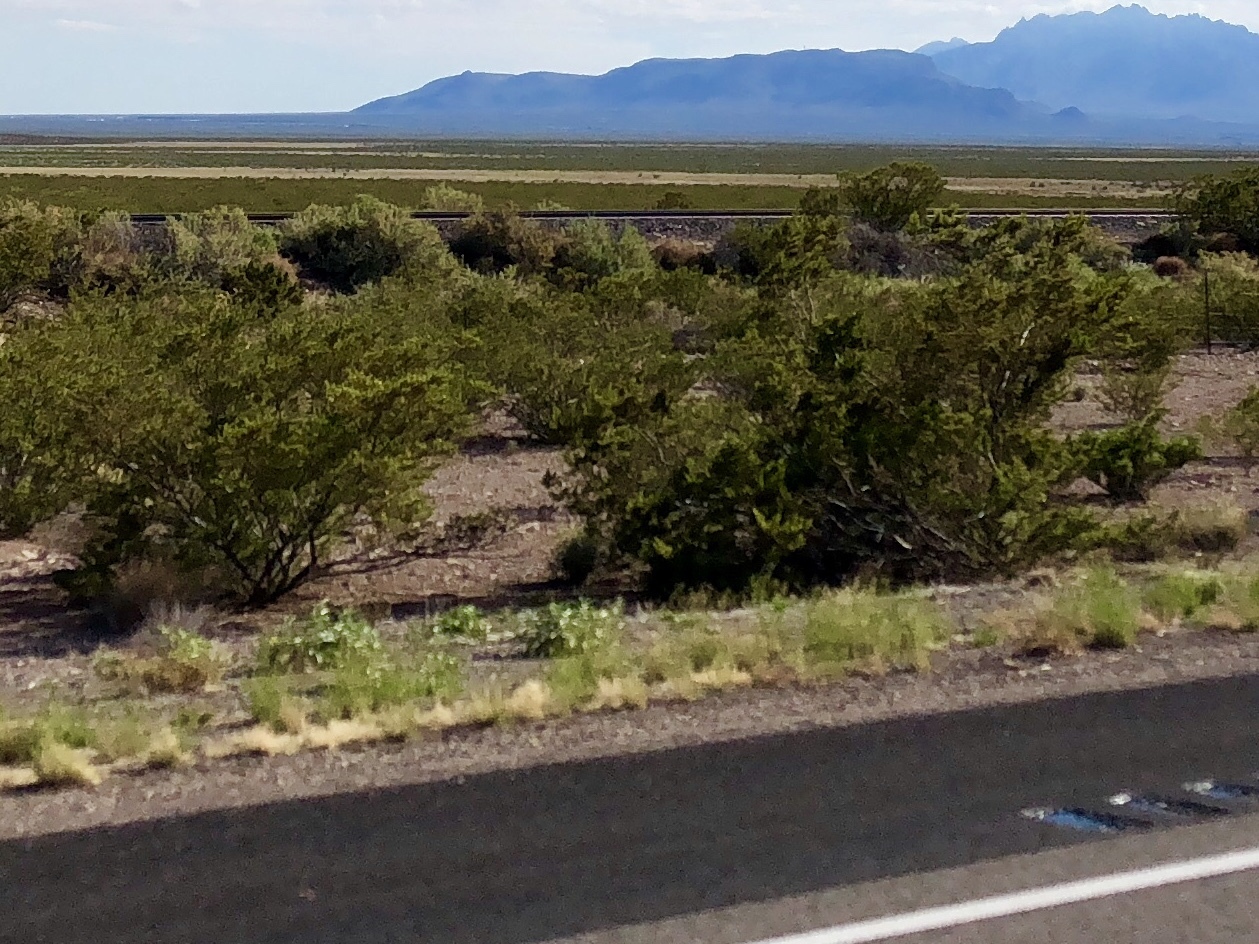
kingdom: Plantae
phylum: Tracheophyta
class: Magnoliopsida
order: Zygophyllales
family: Zygophyllaceae
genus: Larrea
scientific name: Larrea tridentata
